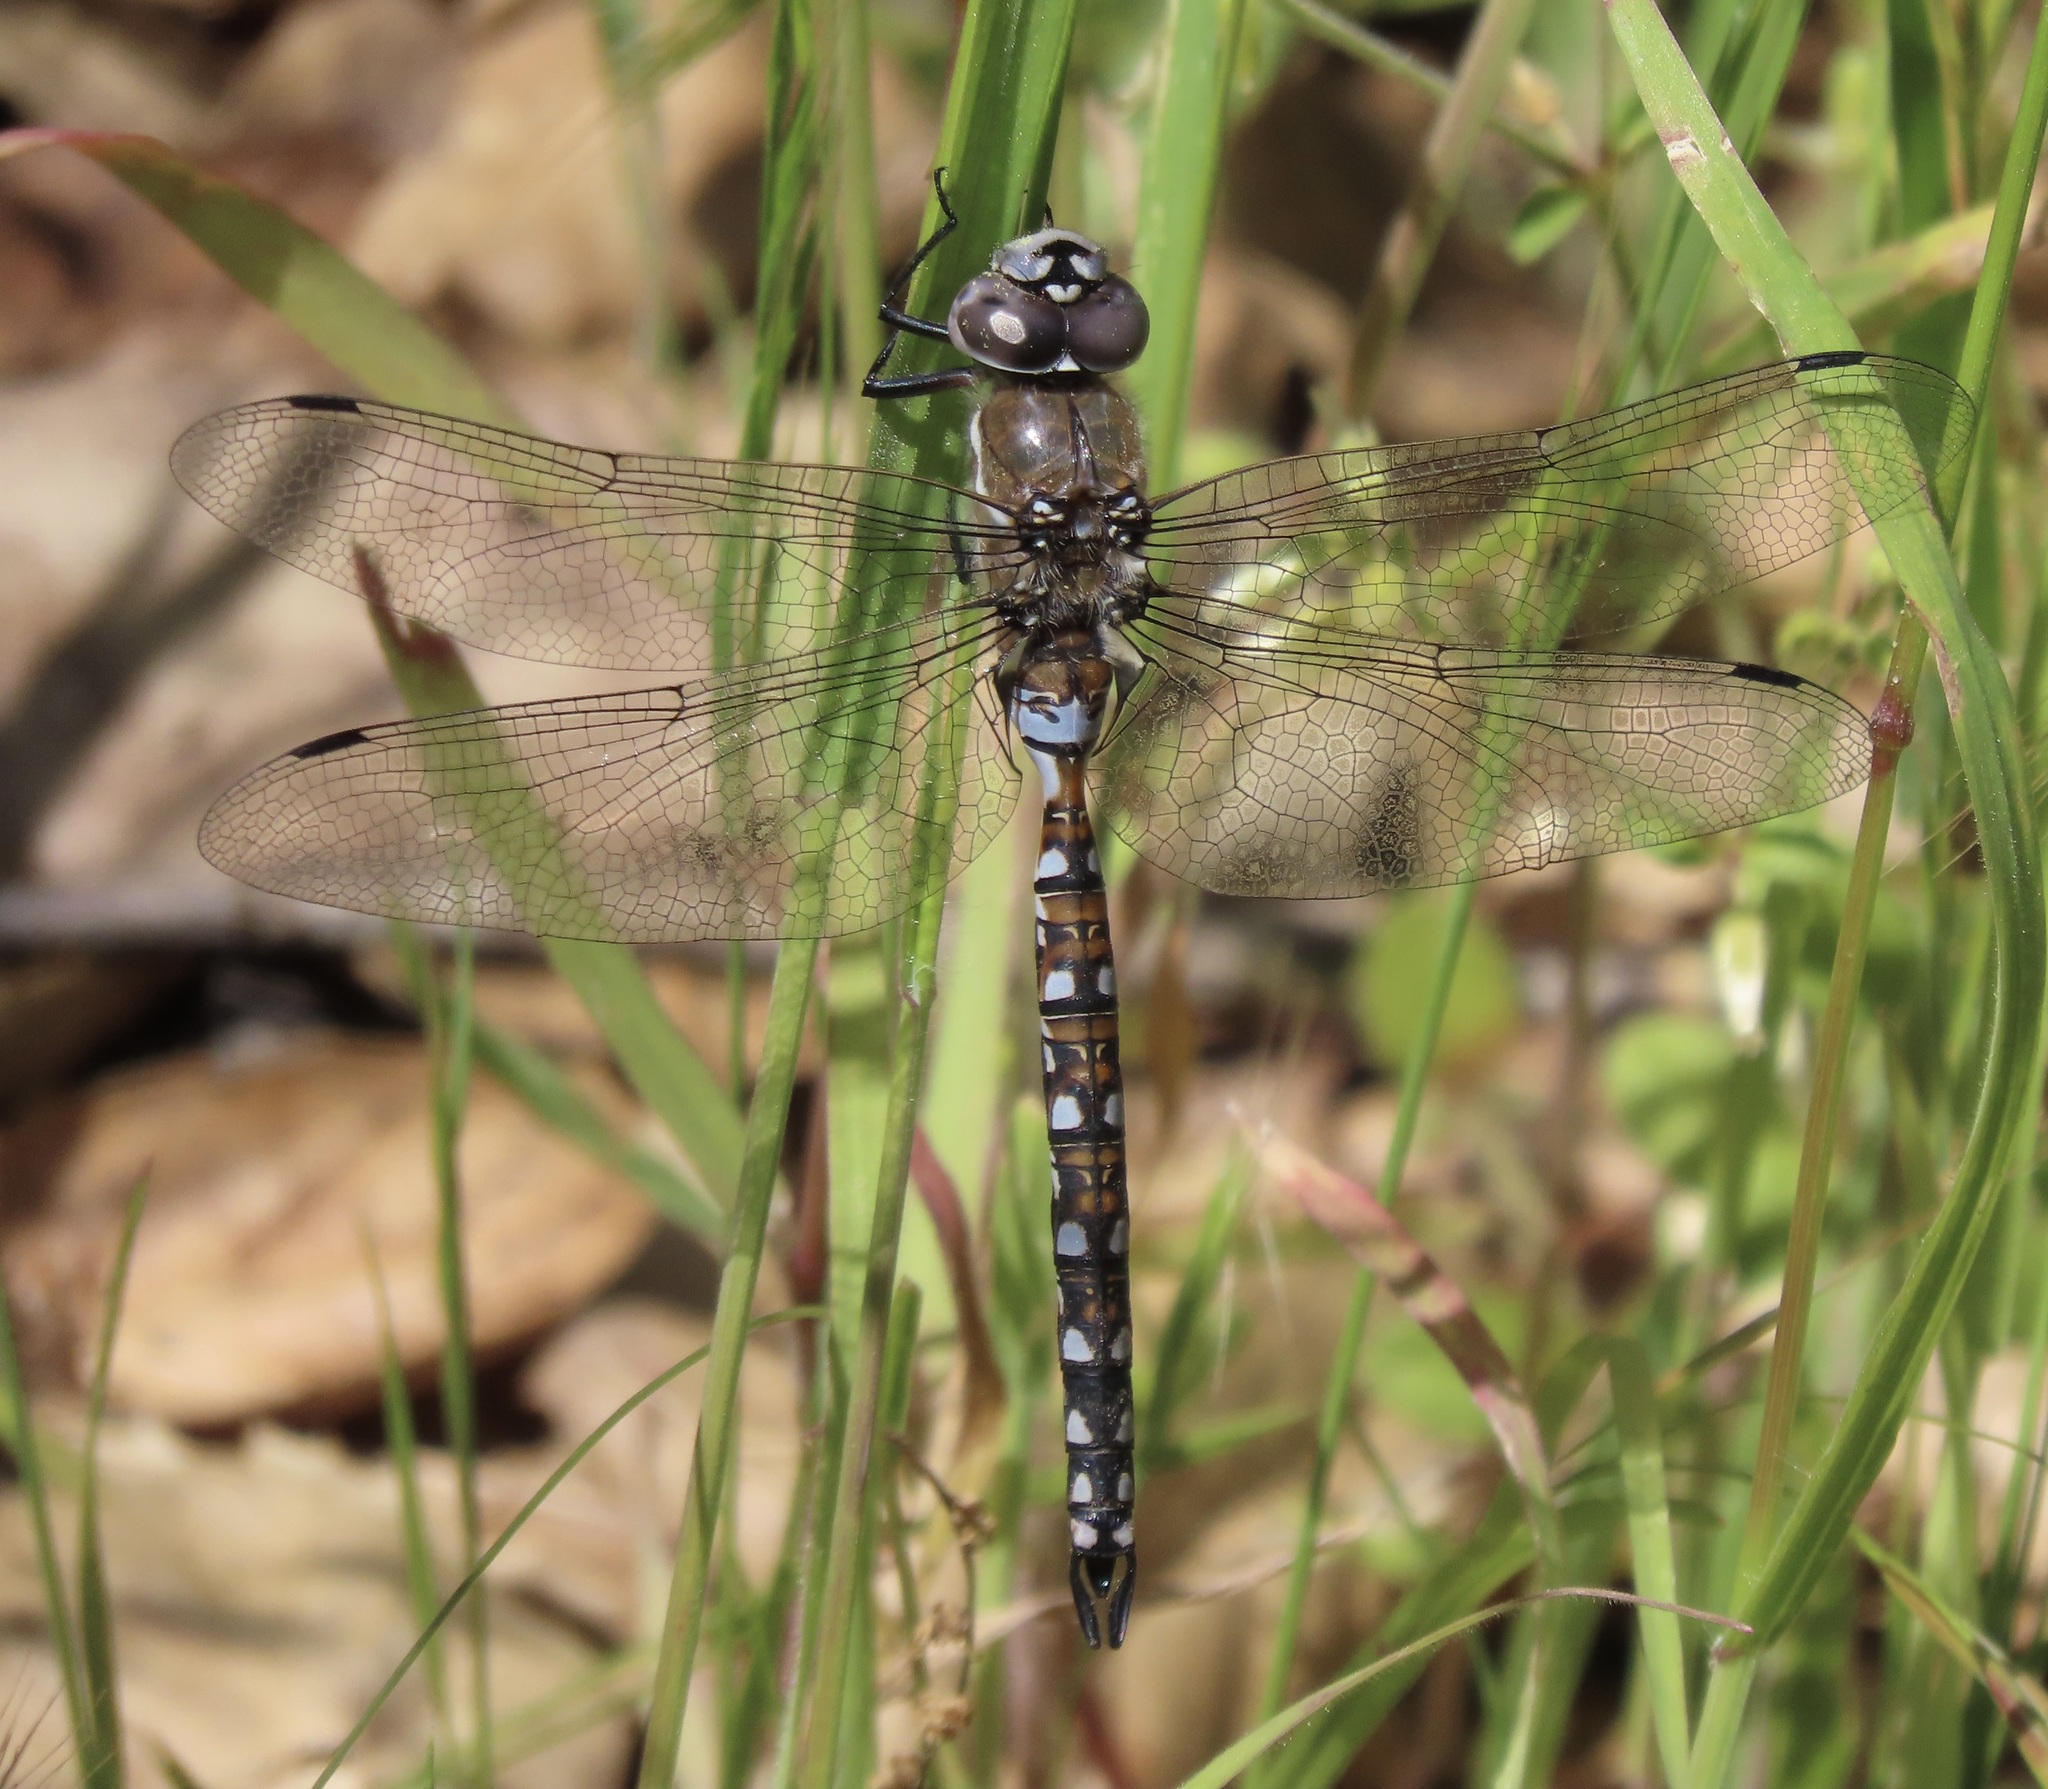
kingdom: Animalia
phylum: Arthropoda
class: Insecta
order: Odonata
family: Aeshnidae
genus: Rhionaeschna
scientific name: Rhionaeschna californica
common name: California darner
